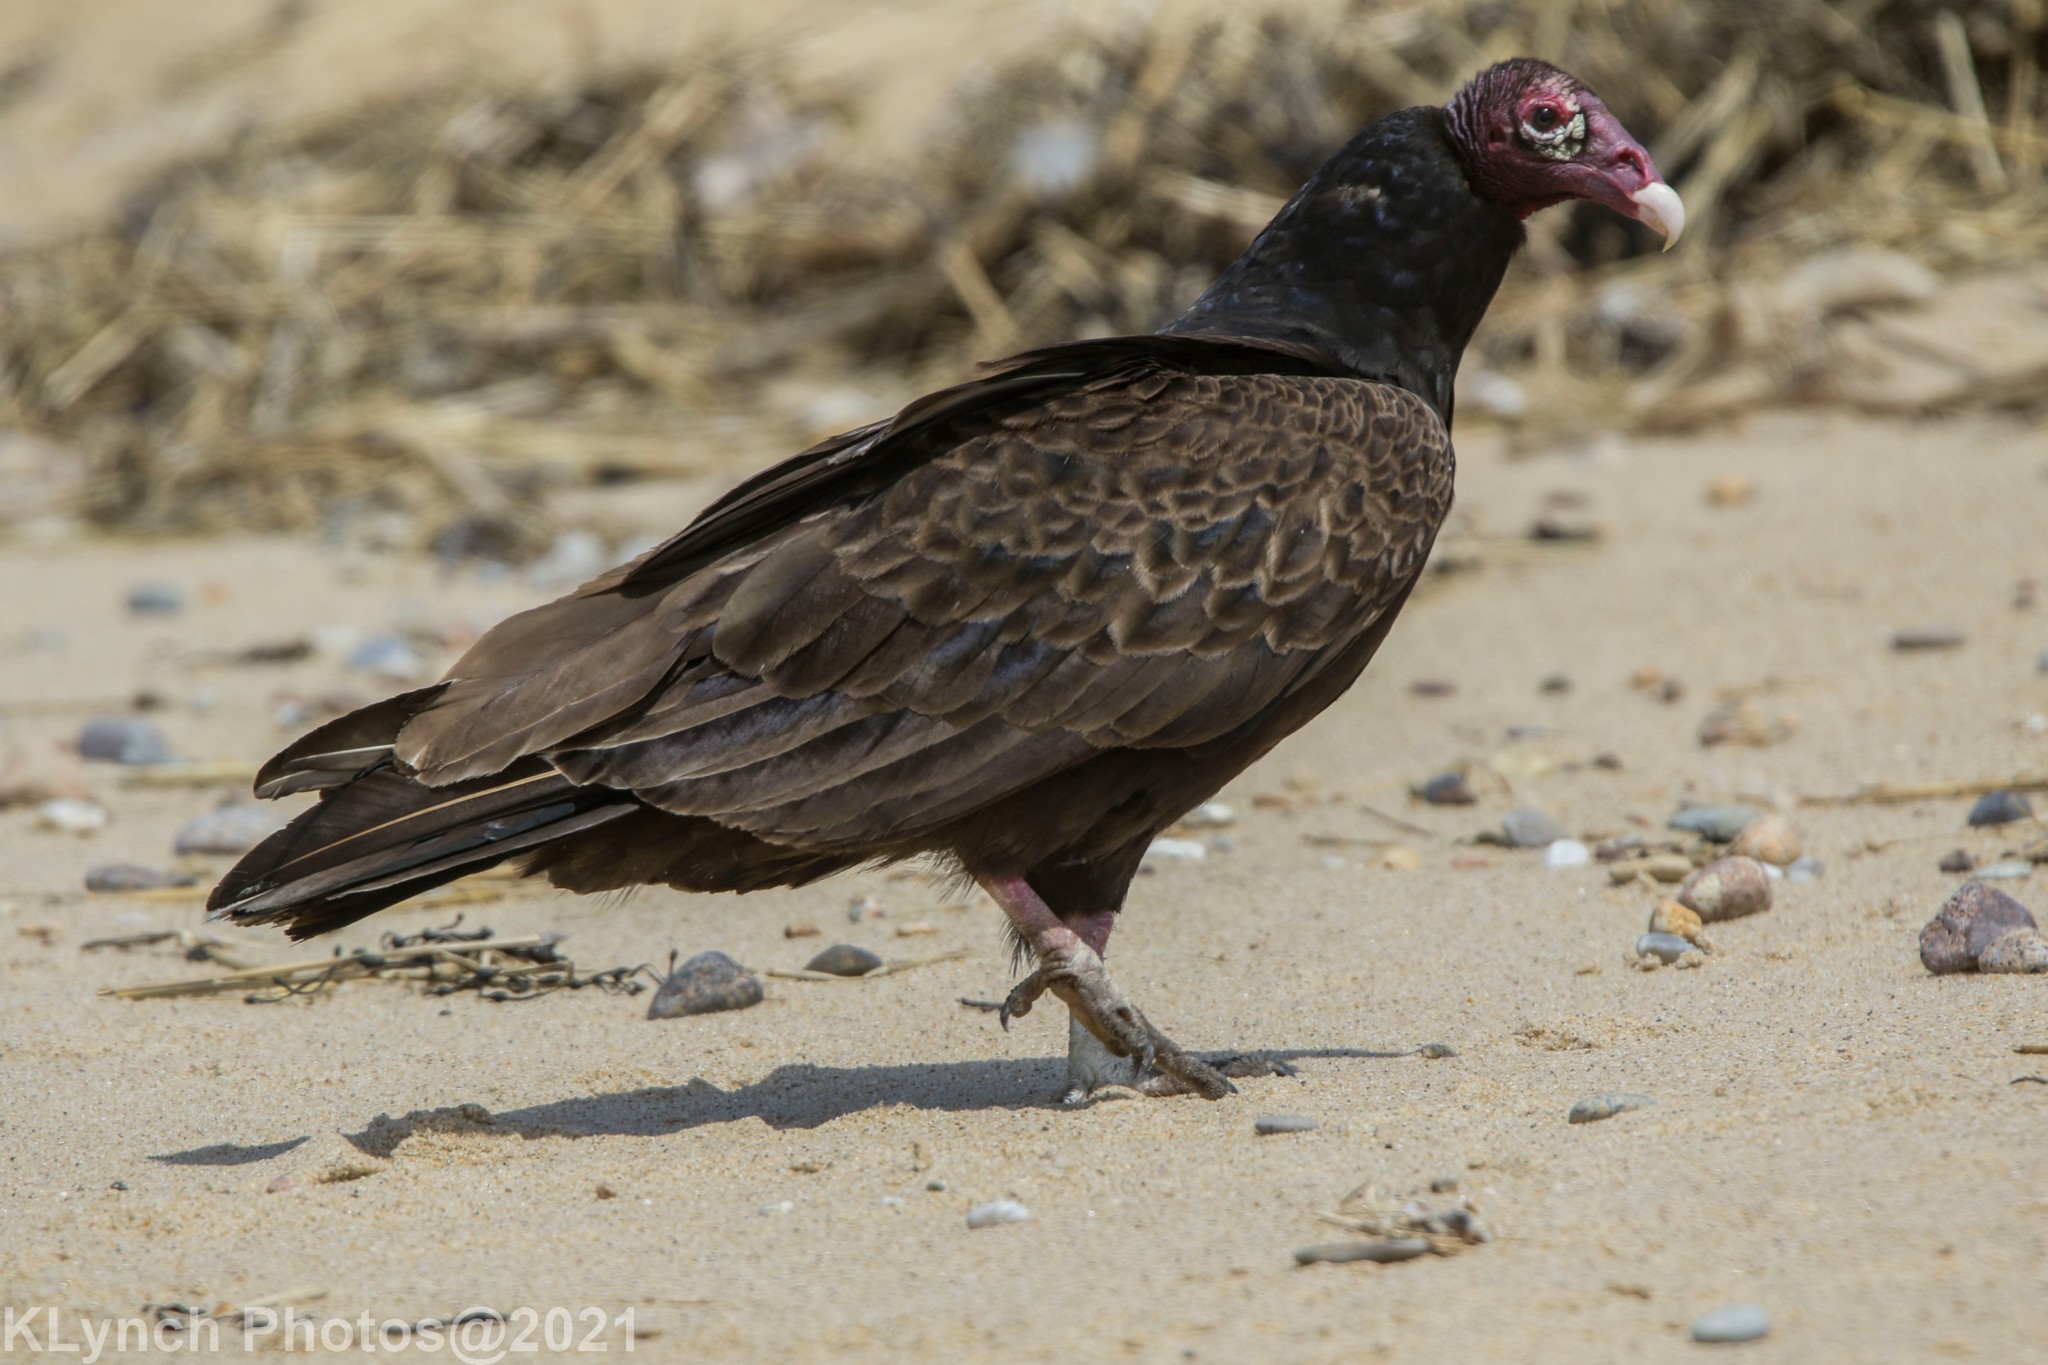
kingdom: Animalia
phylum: Chordata
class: Aves
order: Accipitriformes
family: Cathartidae
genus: Cathartes
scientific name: Cathartes aura
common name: Turkey vulture
